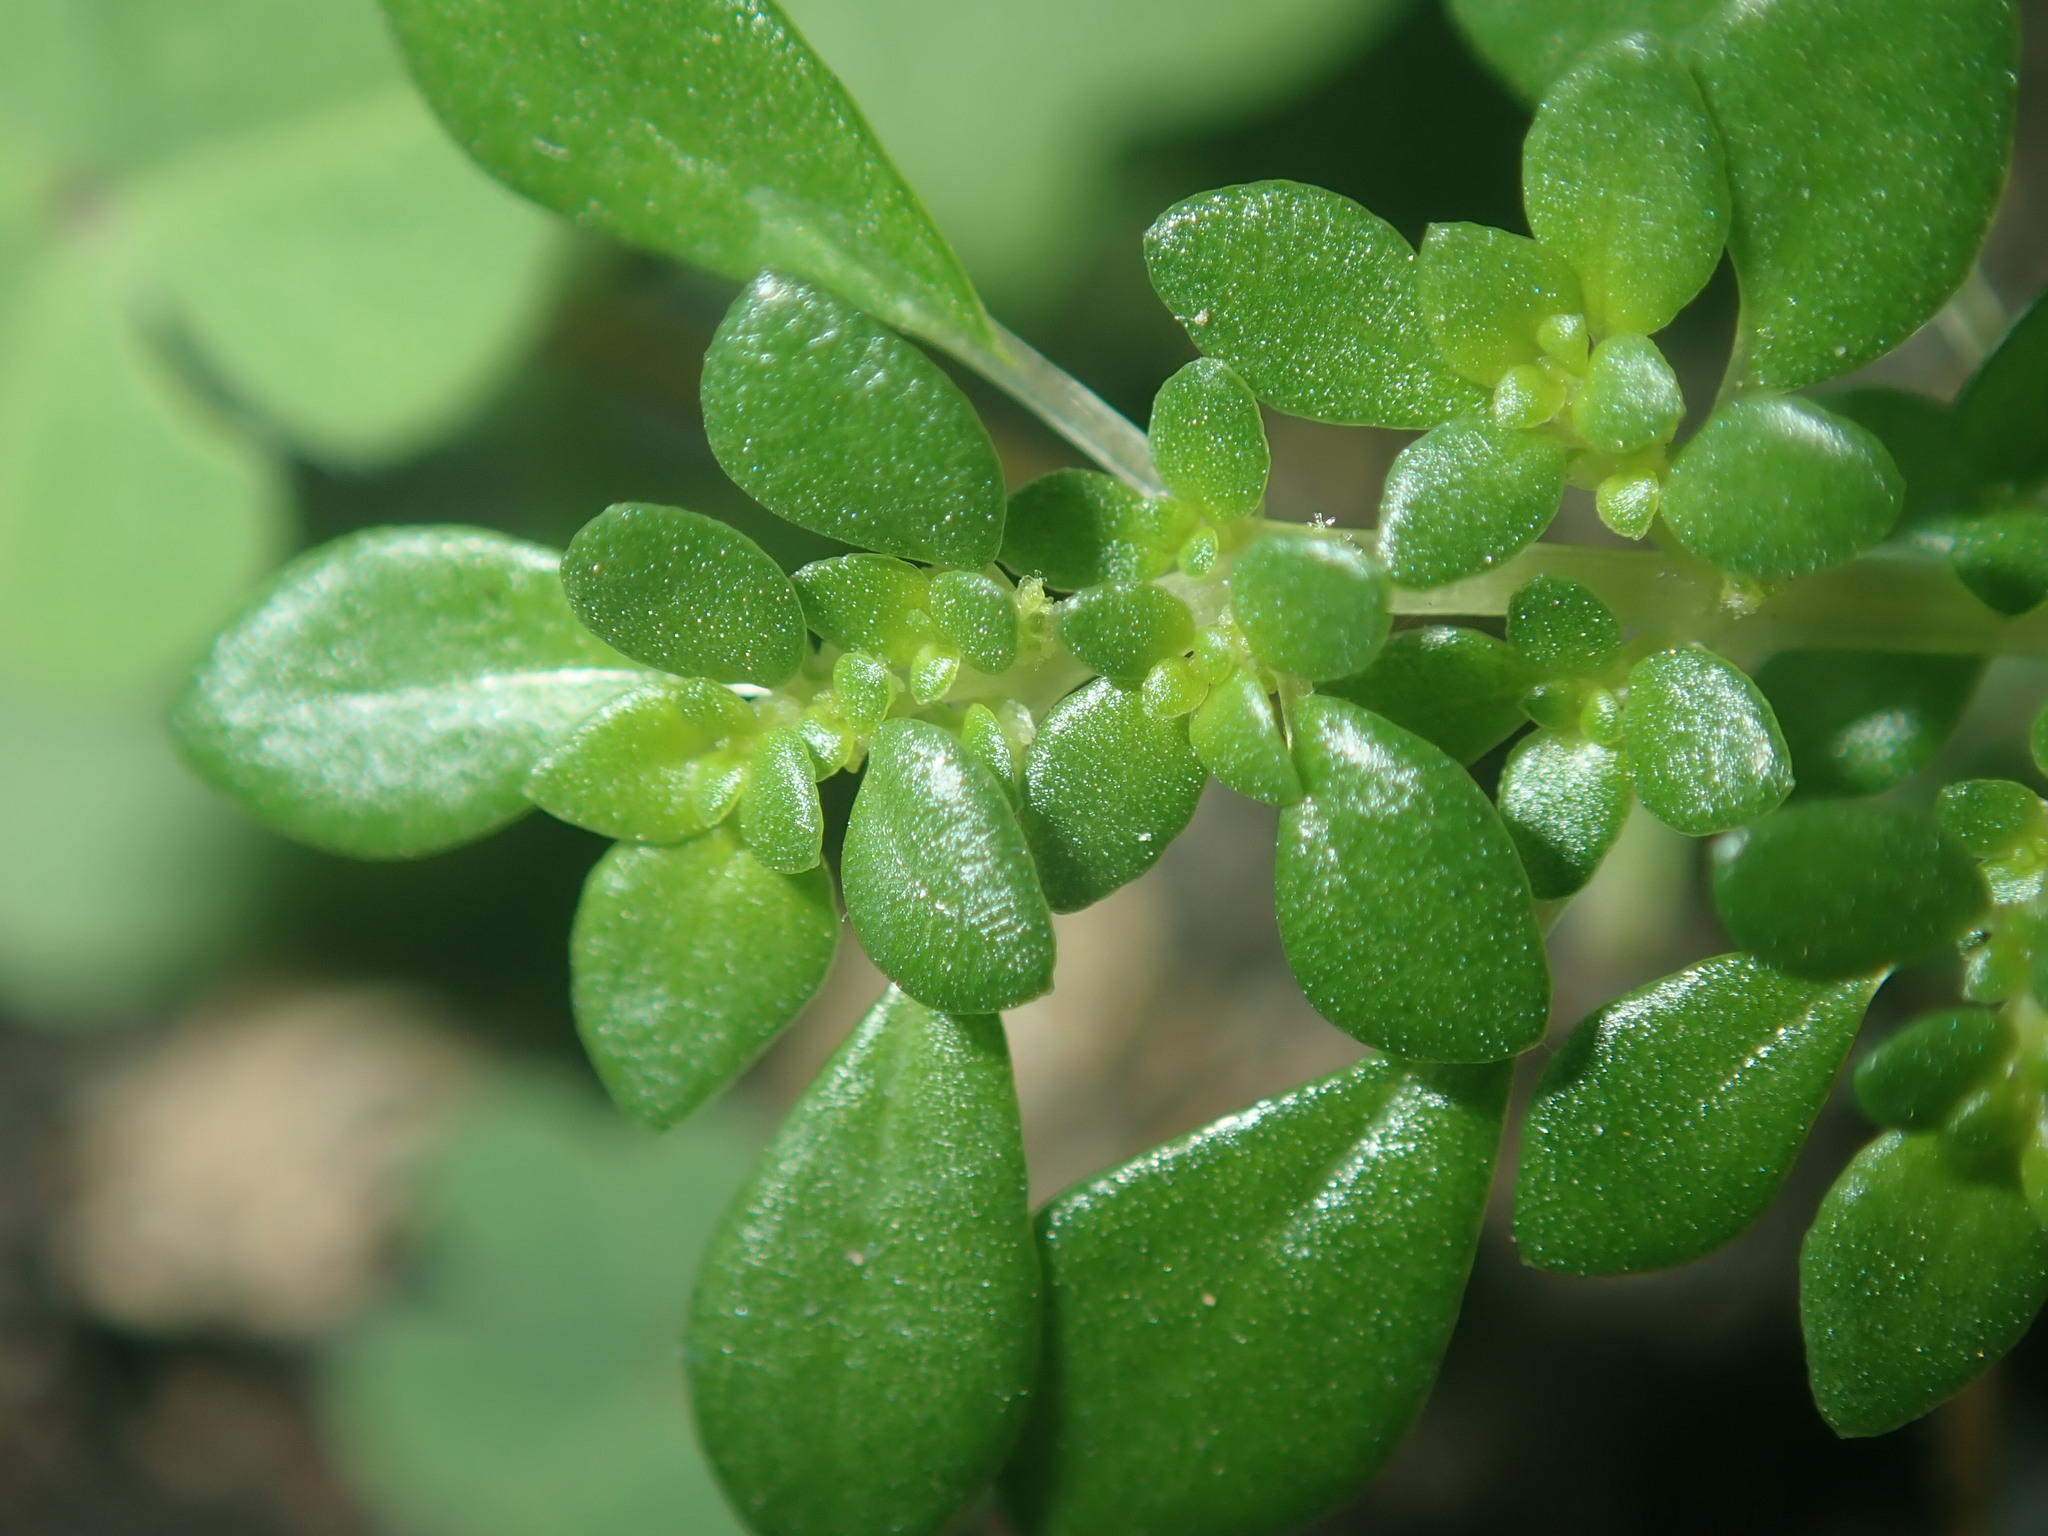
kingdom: Plantae
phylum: Tracheophyta
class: Magnoliopsida
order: Rosales
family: Urticaceae
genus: Pilea
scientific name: Pilea microphylla
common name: Artillery-plant
